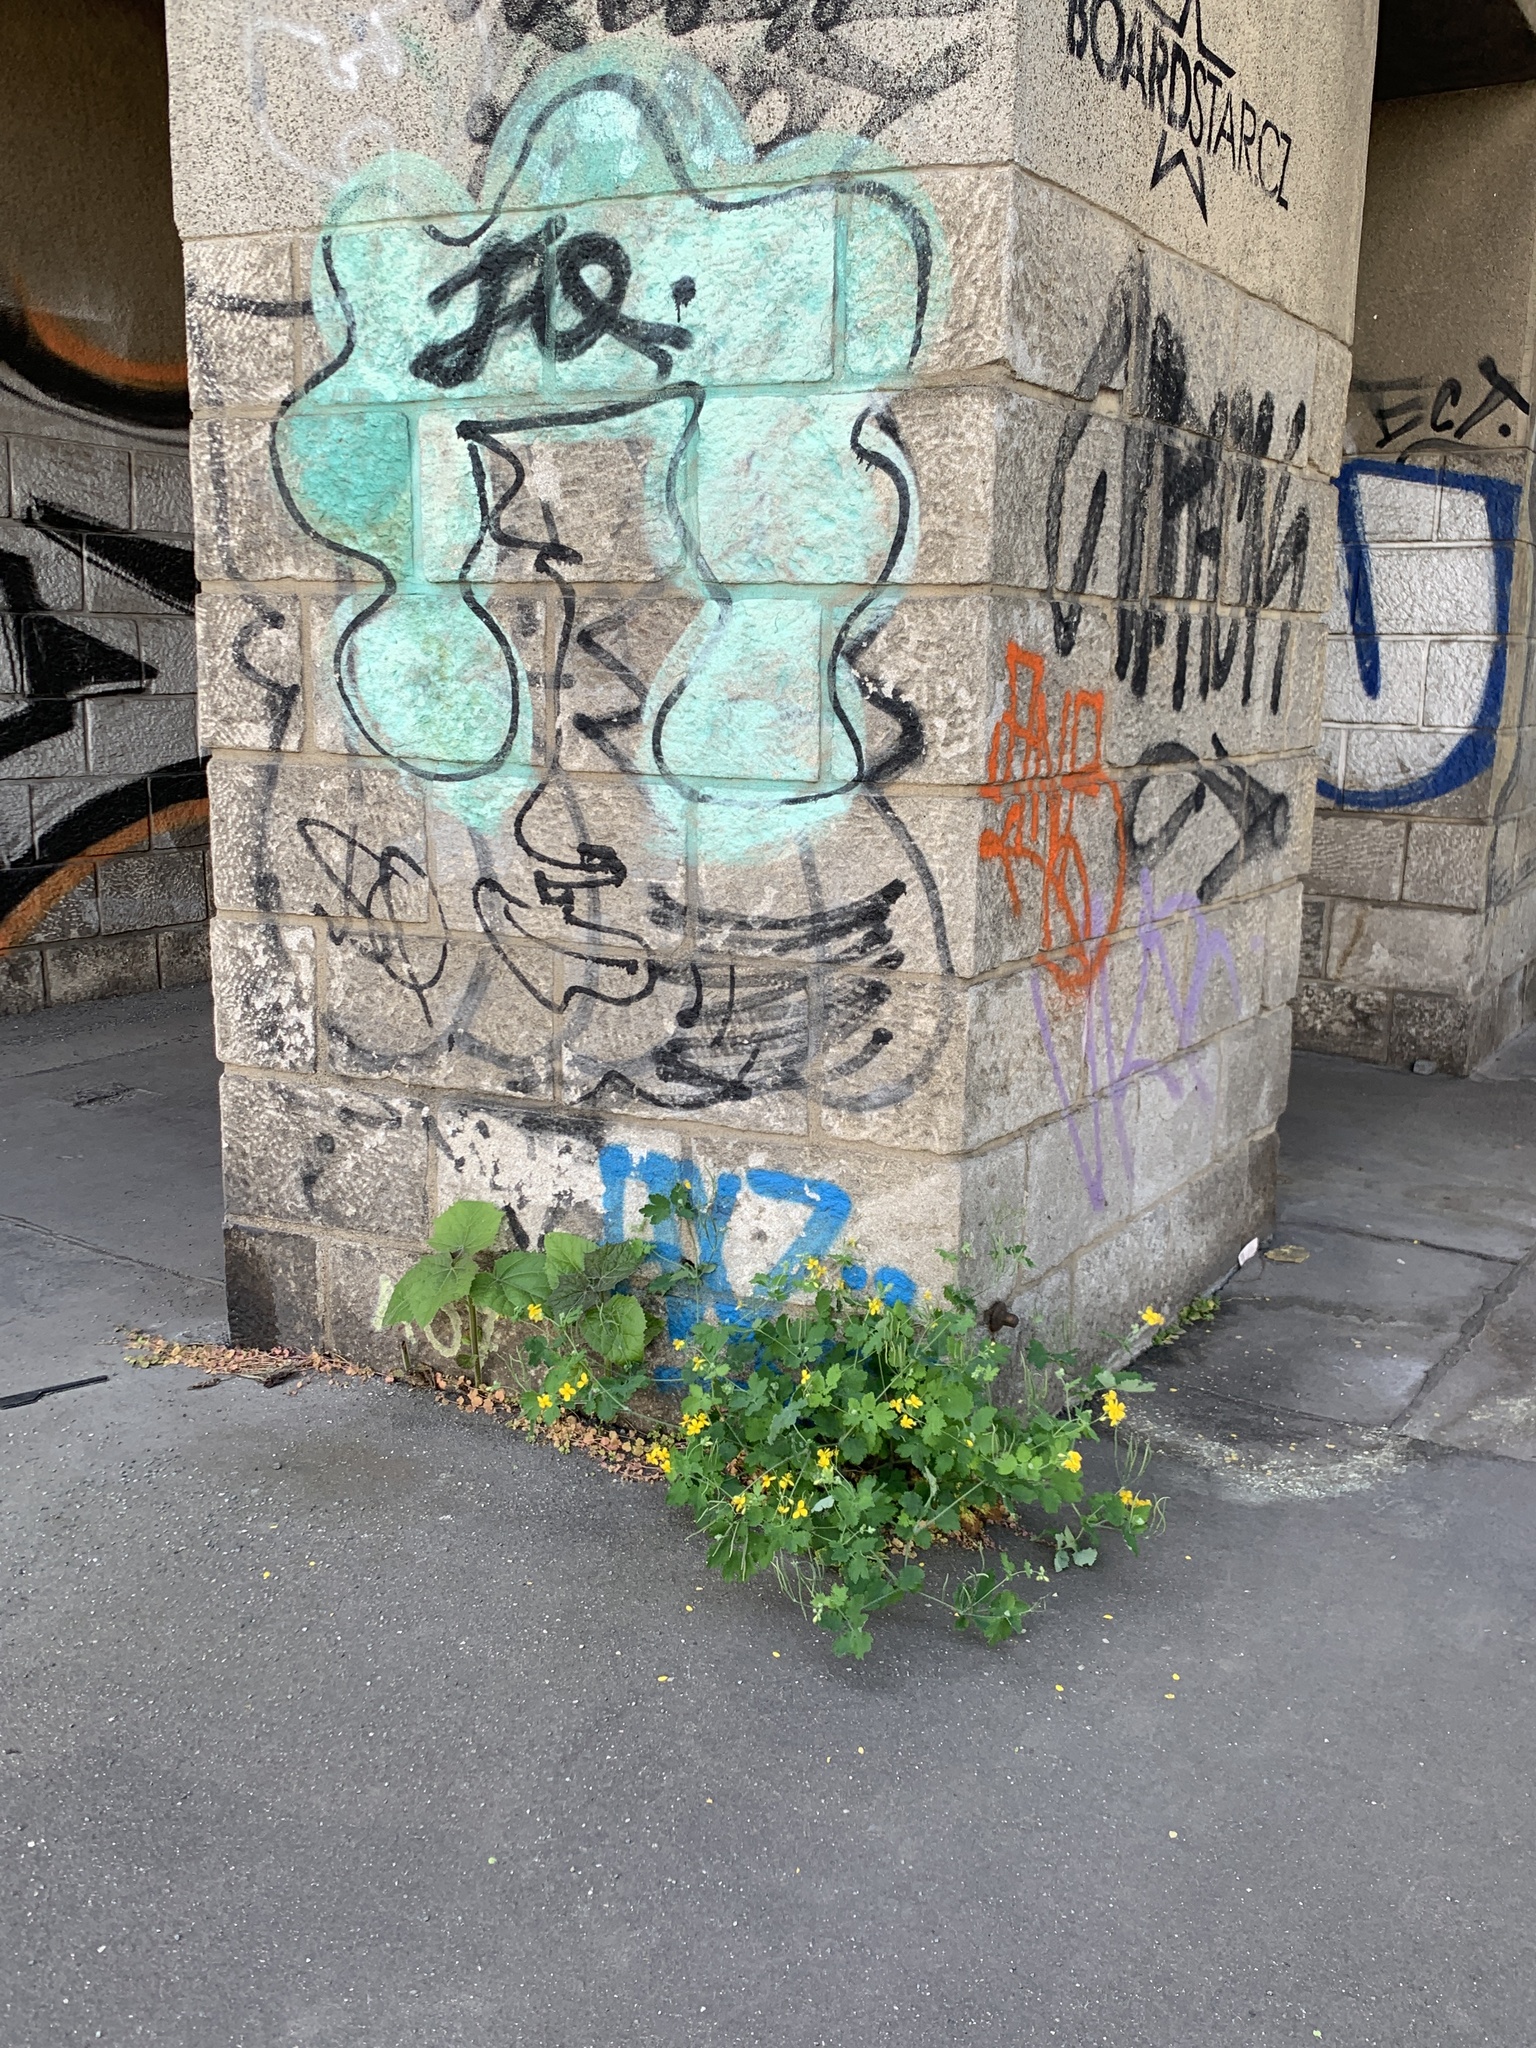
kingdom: Plantae
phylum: Tracheophyta
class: Magnoliopsida
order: Ranunculales
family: Papaveraceae
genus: Chelidonium
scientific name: Chelidonium majus
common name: Greater celandine
